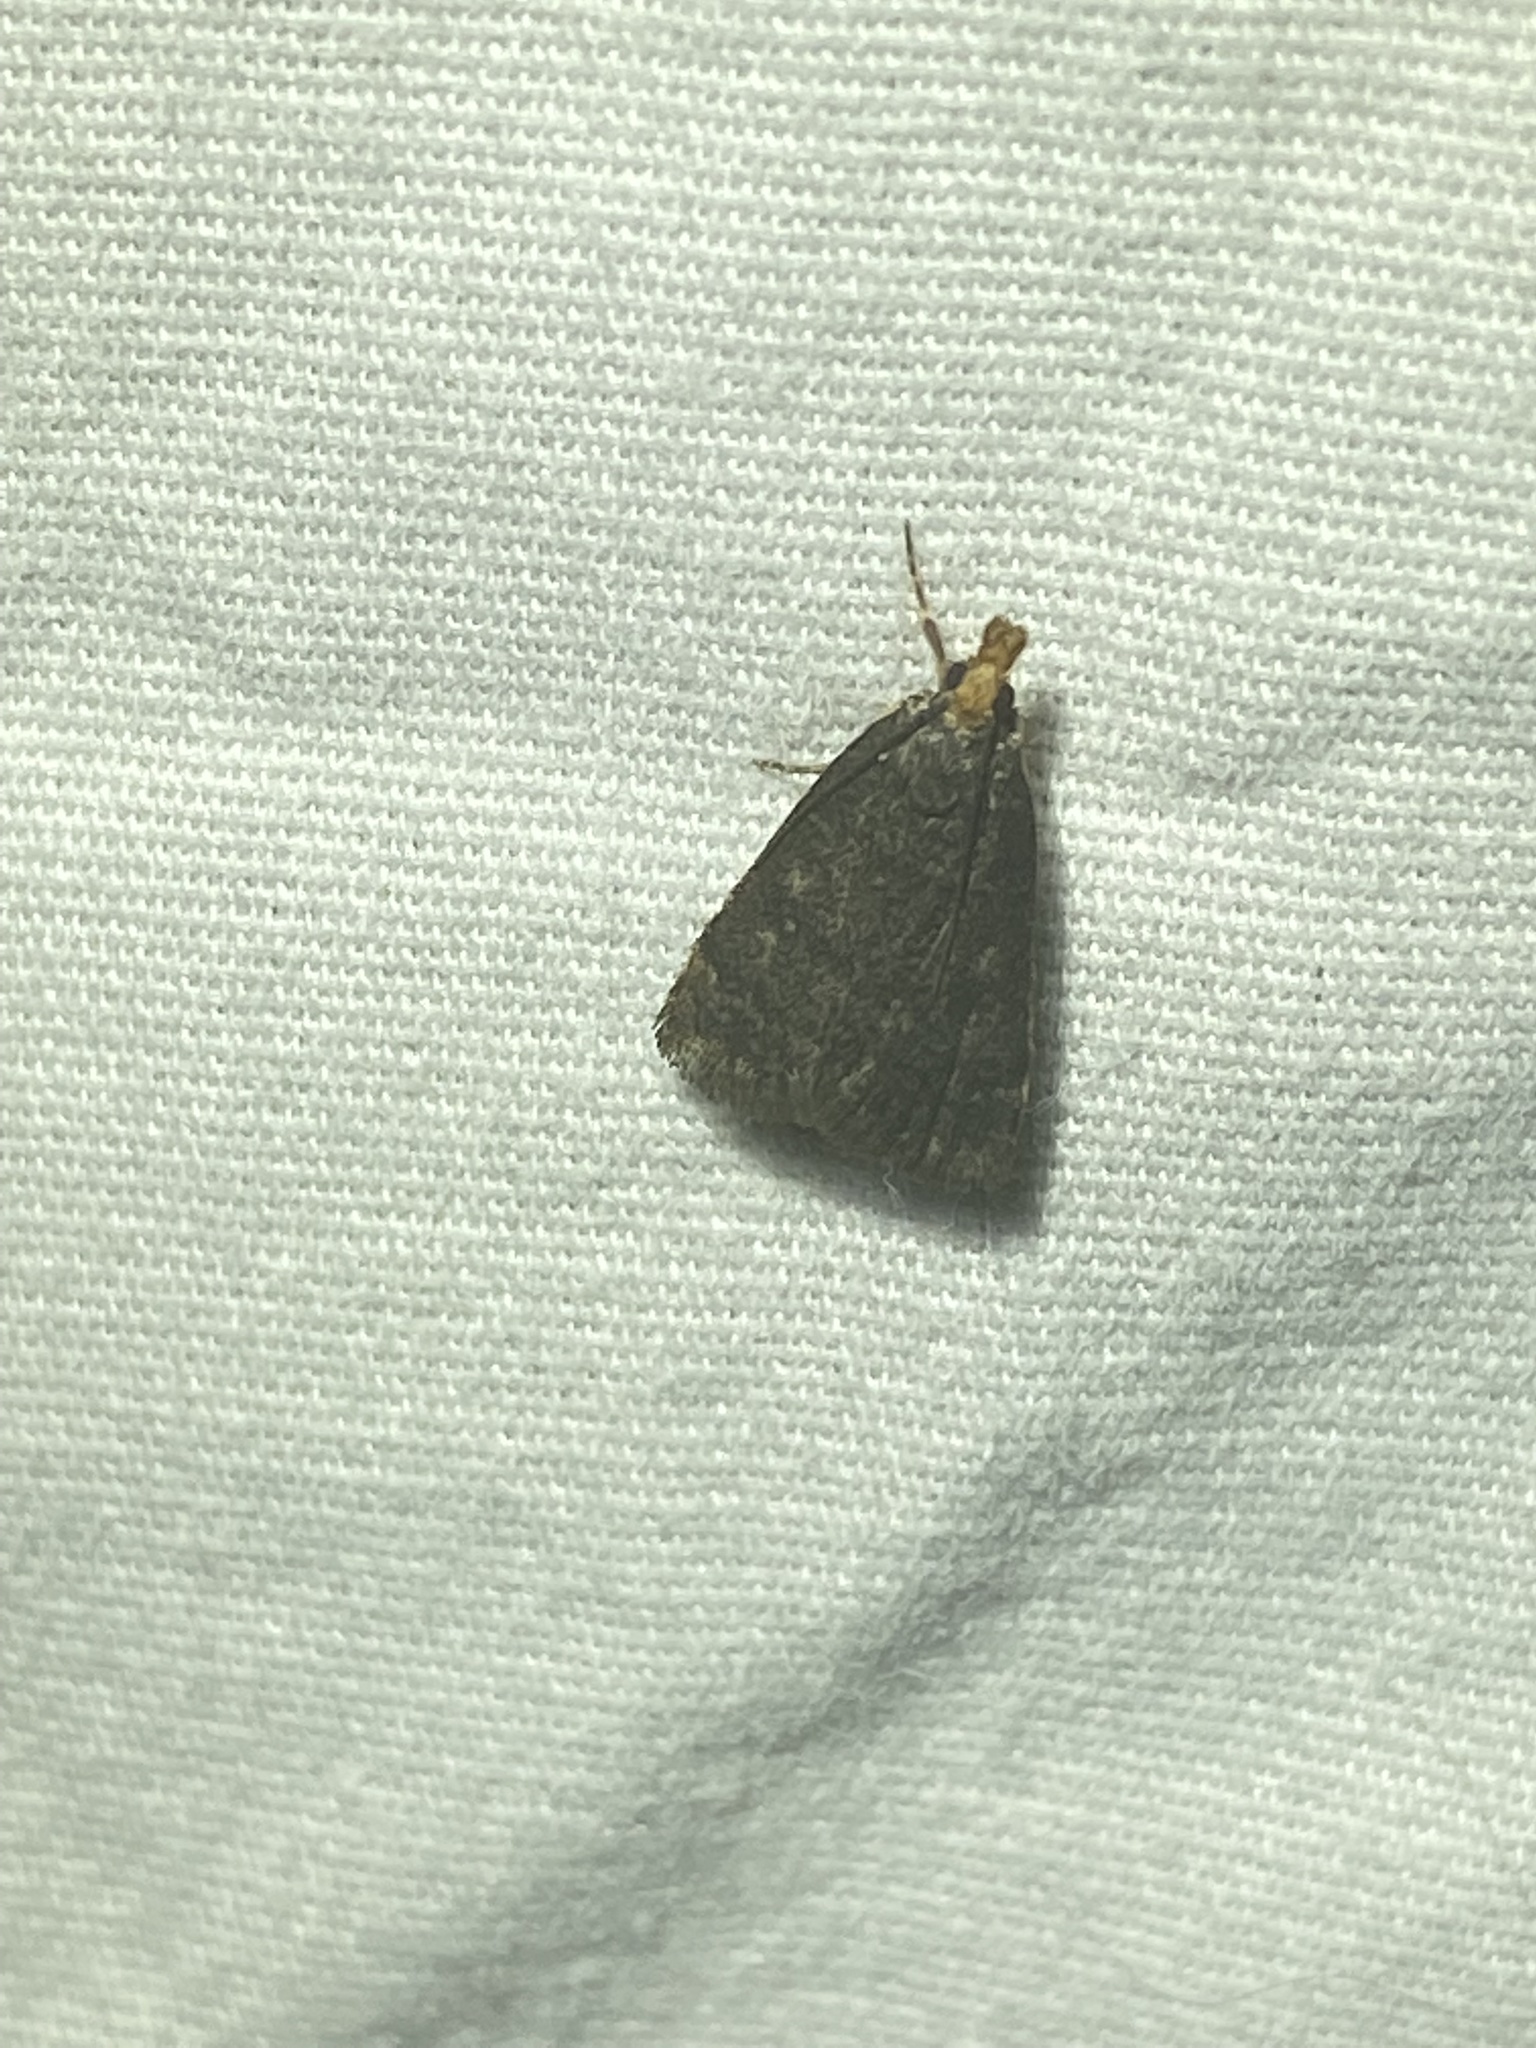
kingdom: Animalia
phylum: Arthropoda
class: Insecta
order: Lepidoptera
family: Crambidae
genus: Pyrausta
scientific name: Pyrausta merrickalis
